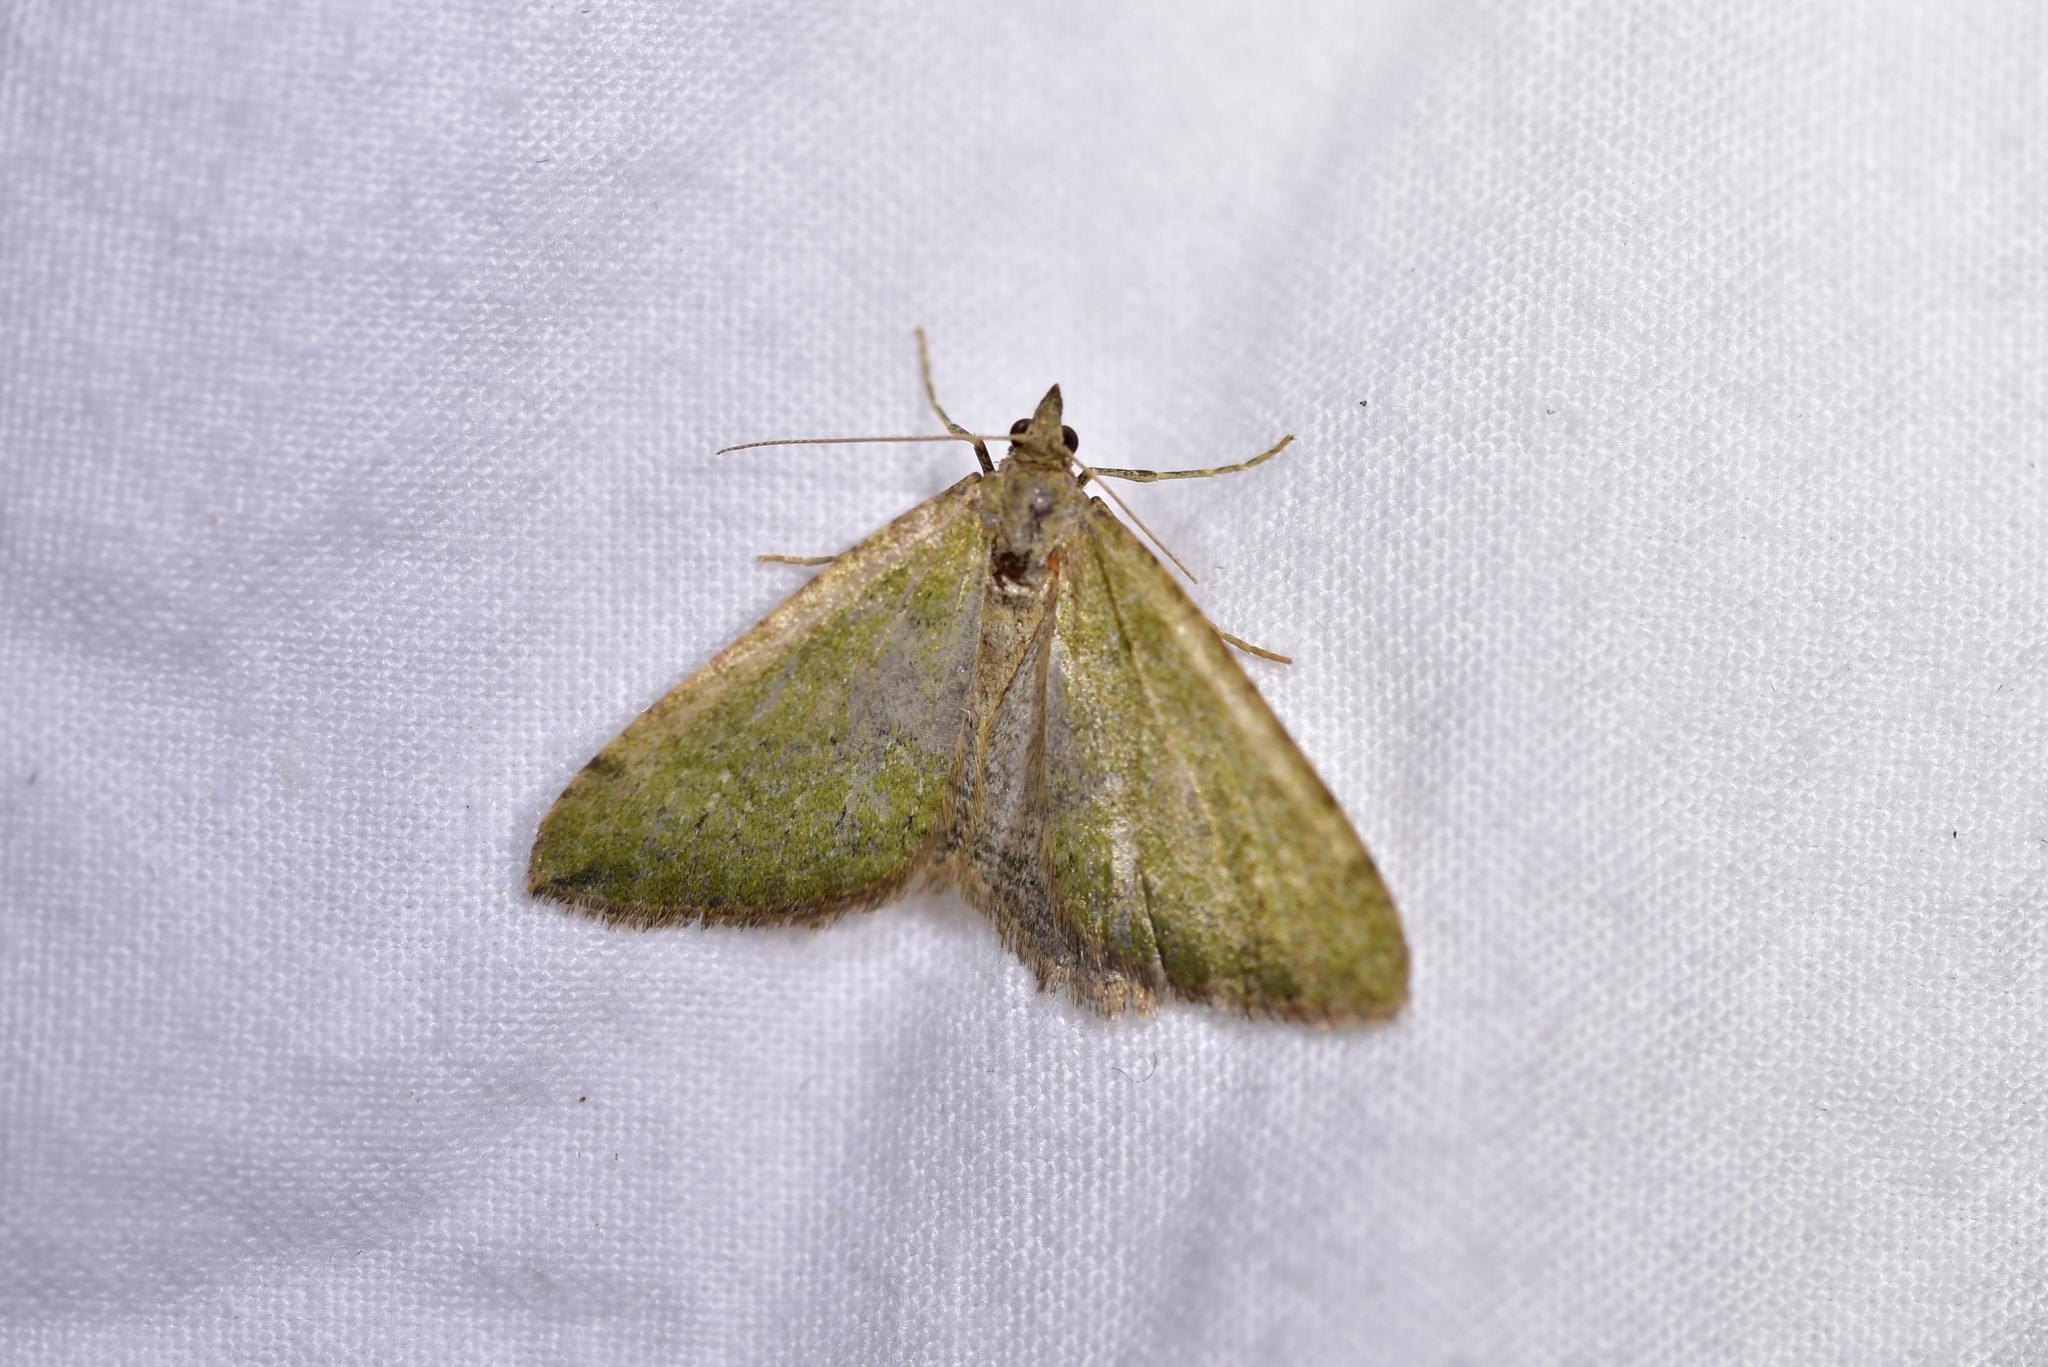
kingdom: Animalia
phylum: Arthropoda
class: Insecta
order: Lepidoptera
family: Geometridae
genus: Epyaxa
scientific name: Epyaxa rosearia
